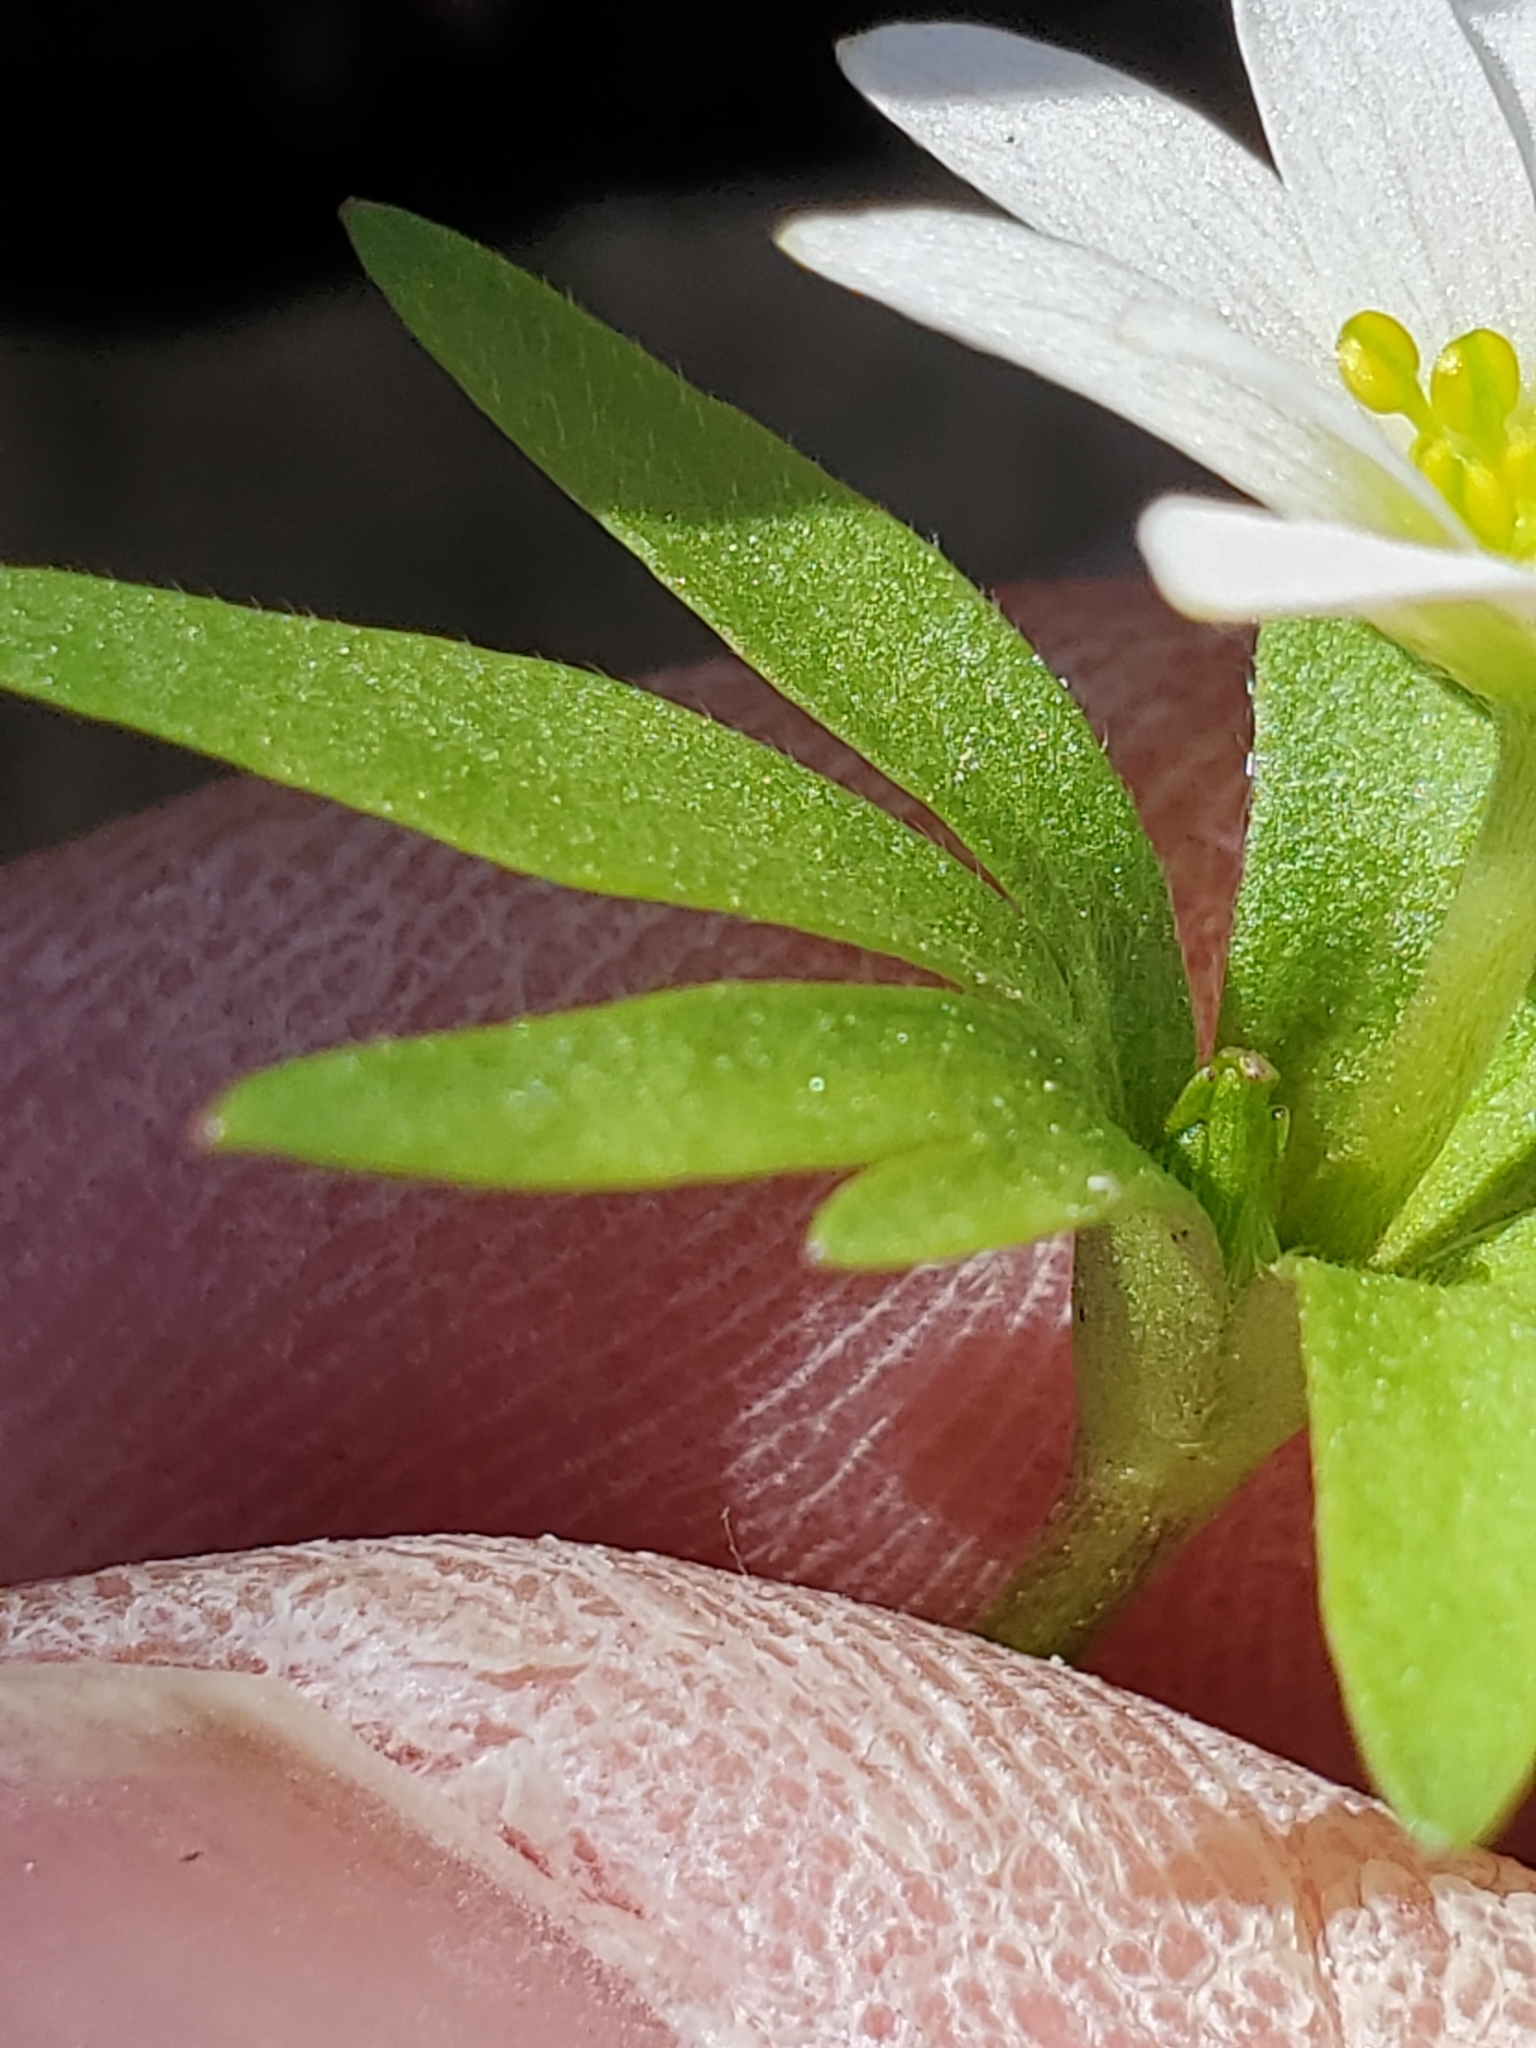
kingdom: Plantae
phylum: Tracheophyta
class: Magnoliopsida
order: Ranunculales
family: Ranunculaceae
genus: Anemone
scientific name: Anemone edwardsiana
